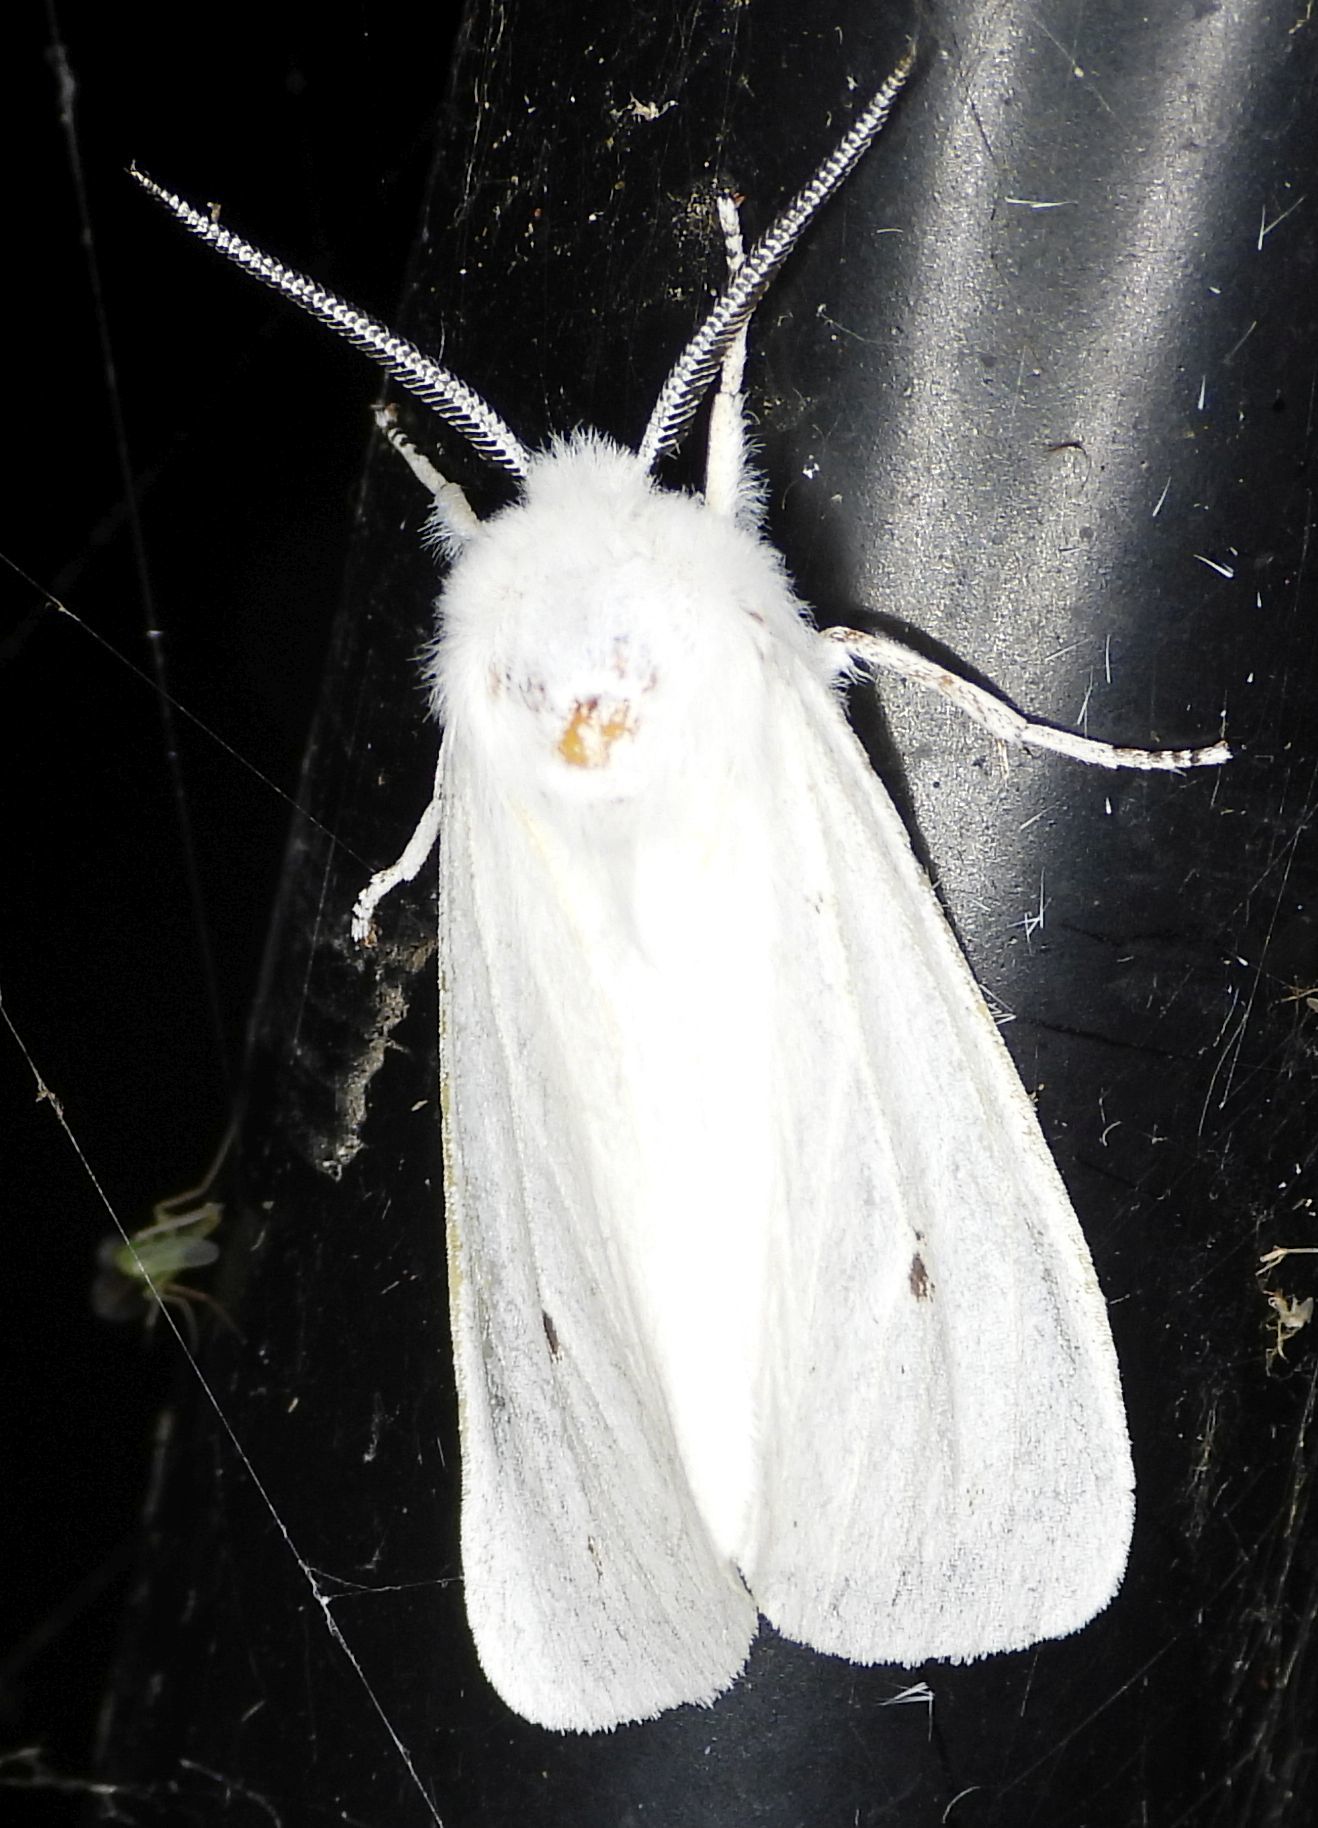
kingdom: Animalia
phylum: Arthropoda
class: Insecta
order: Lepidoptera
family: Erebidae
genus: Spilosoma
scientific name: Spilosoma virginica
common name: Virginia tiger moth
